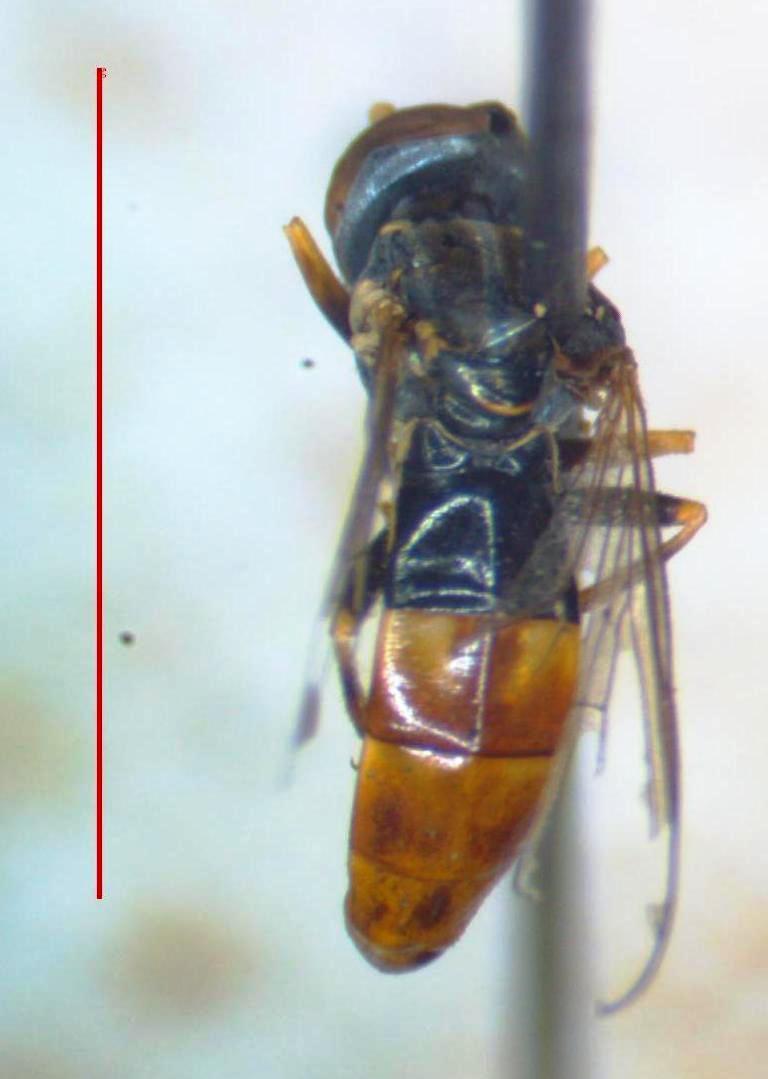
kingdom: Animalia
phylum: Arthropoda
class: Insecta
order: Diptera
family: Syrphidae
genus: Toxomerus
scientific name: Toxomerus dispar
